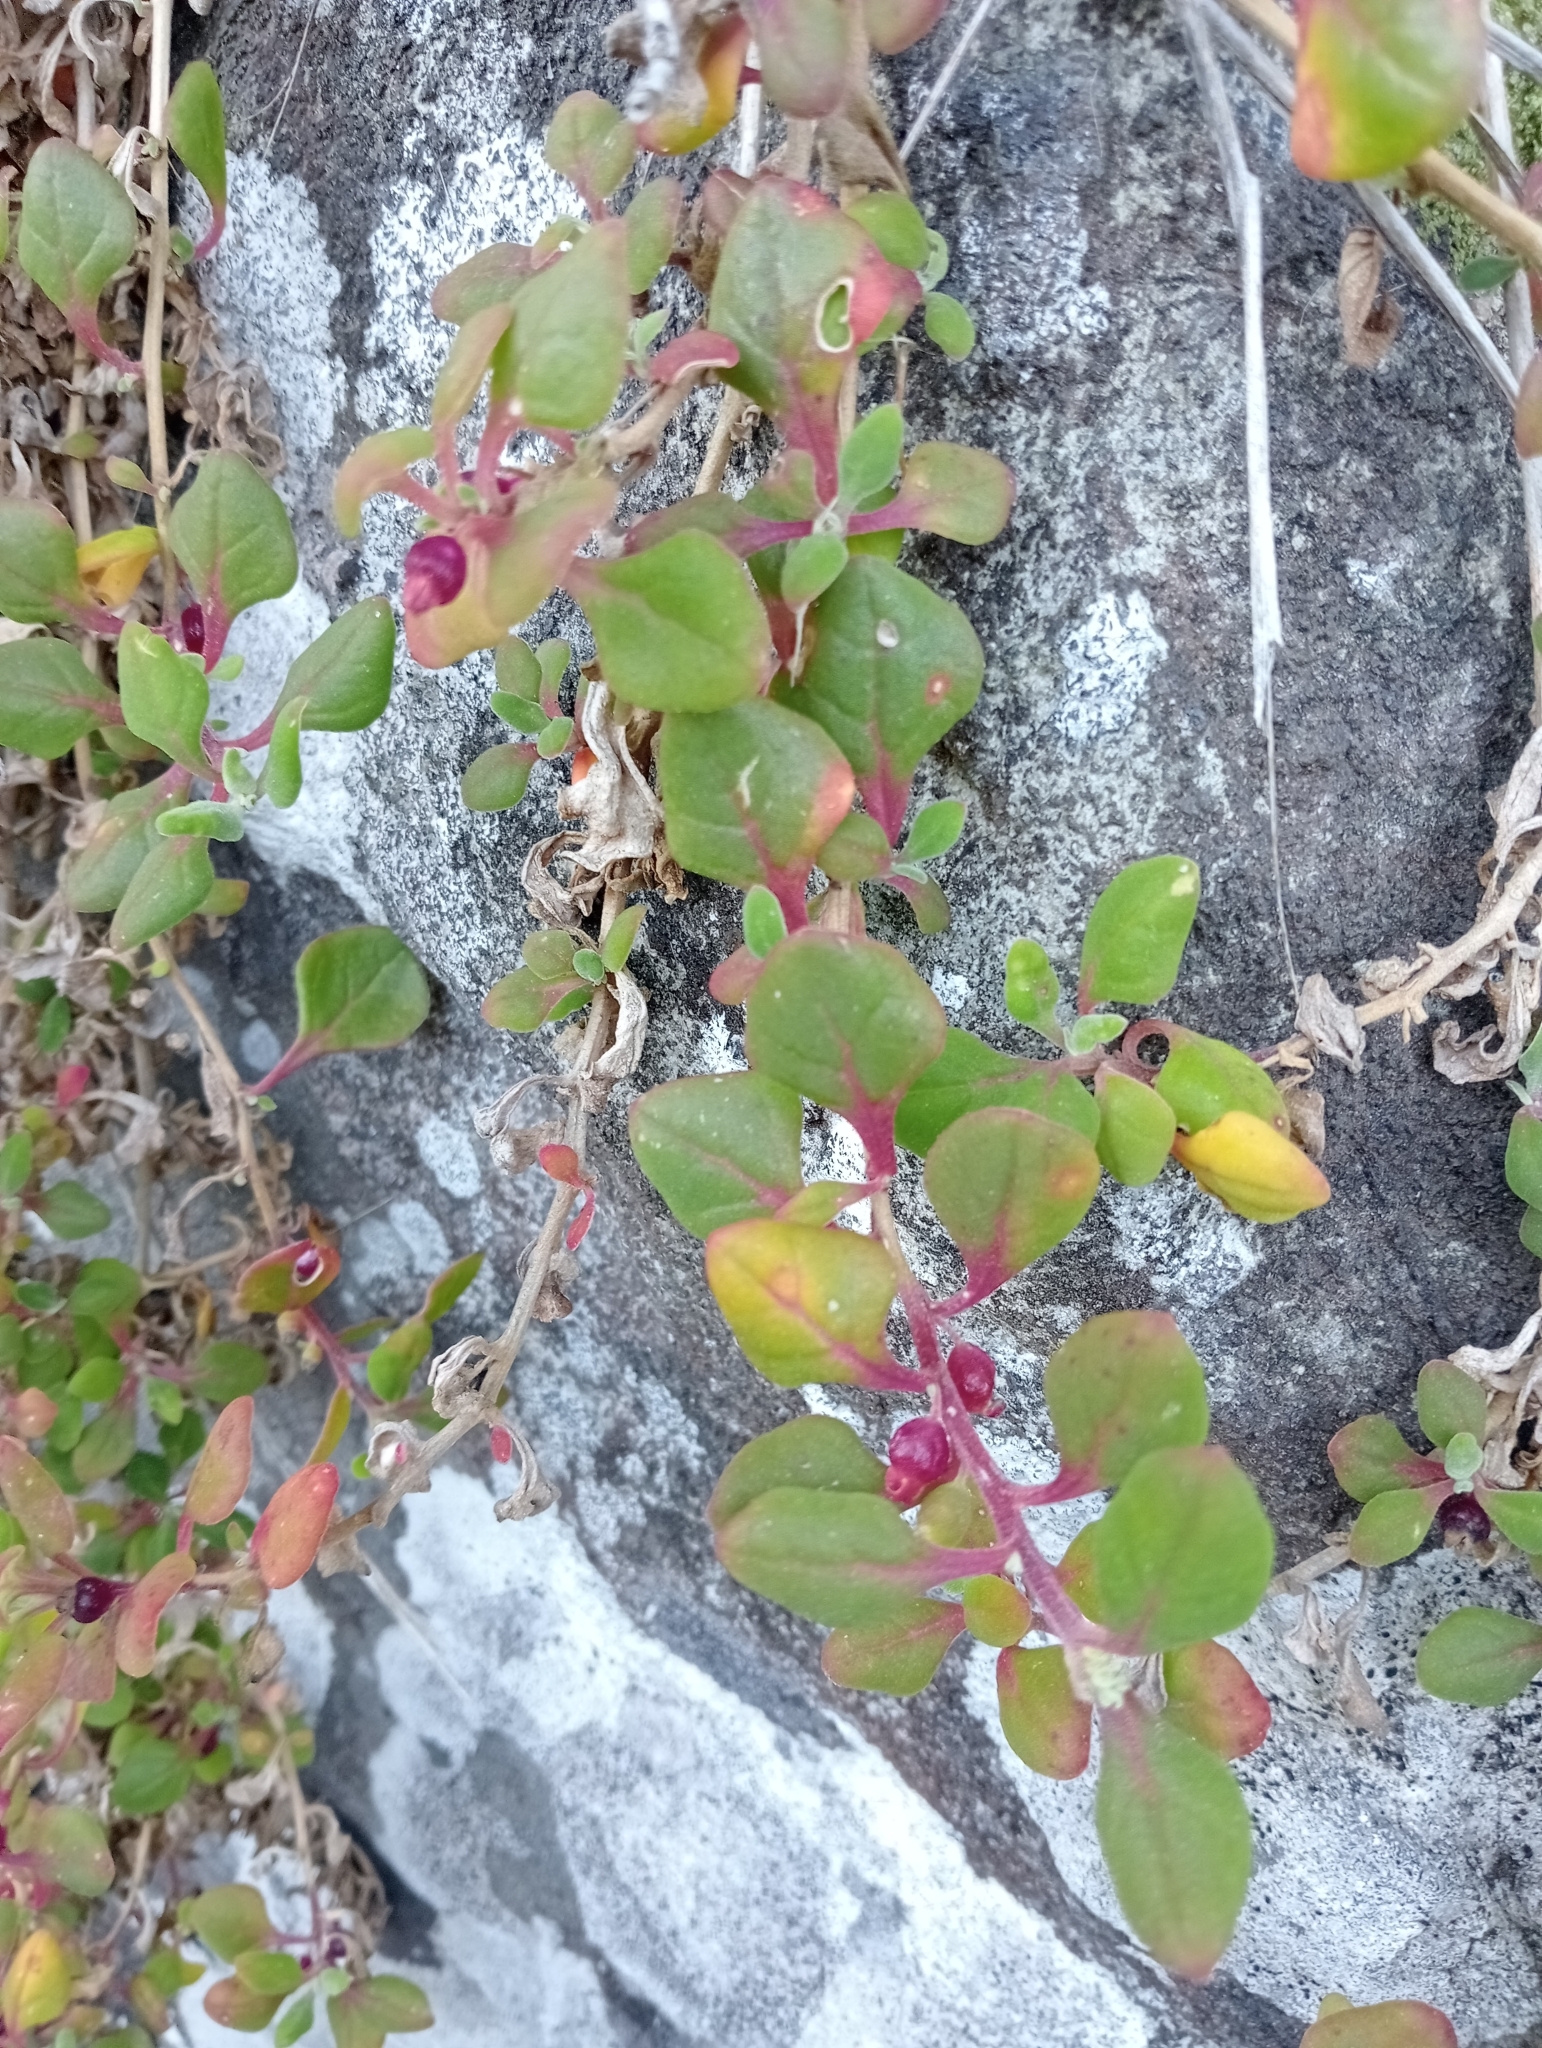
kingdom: Plantae
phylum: Tracheophyta
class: Magnoliopsida
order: Caryophyllales
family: Aizoaceae
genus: Tetragonia
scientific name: Tetragonia implexicoma
